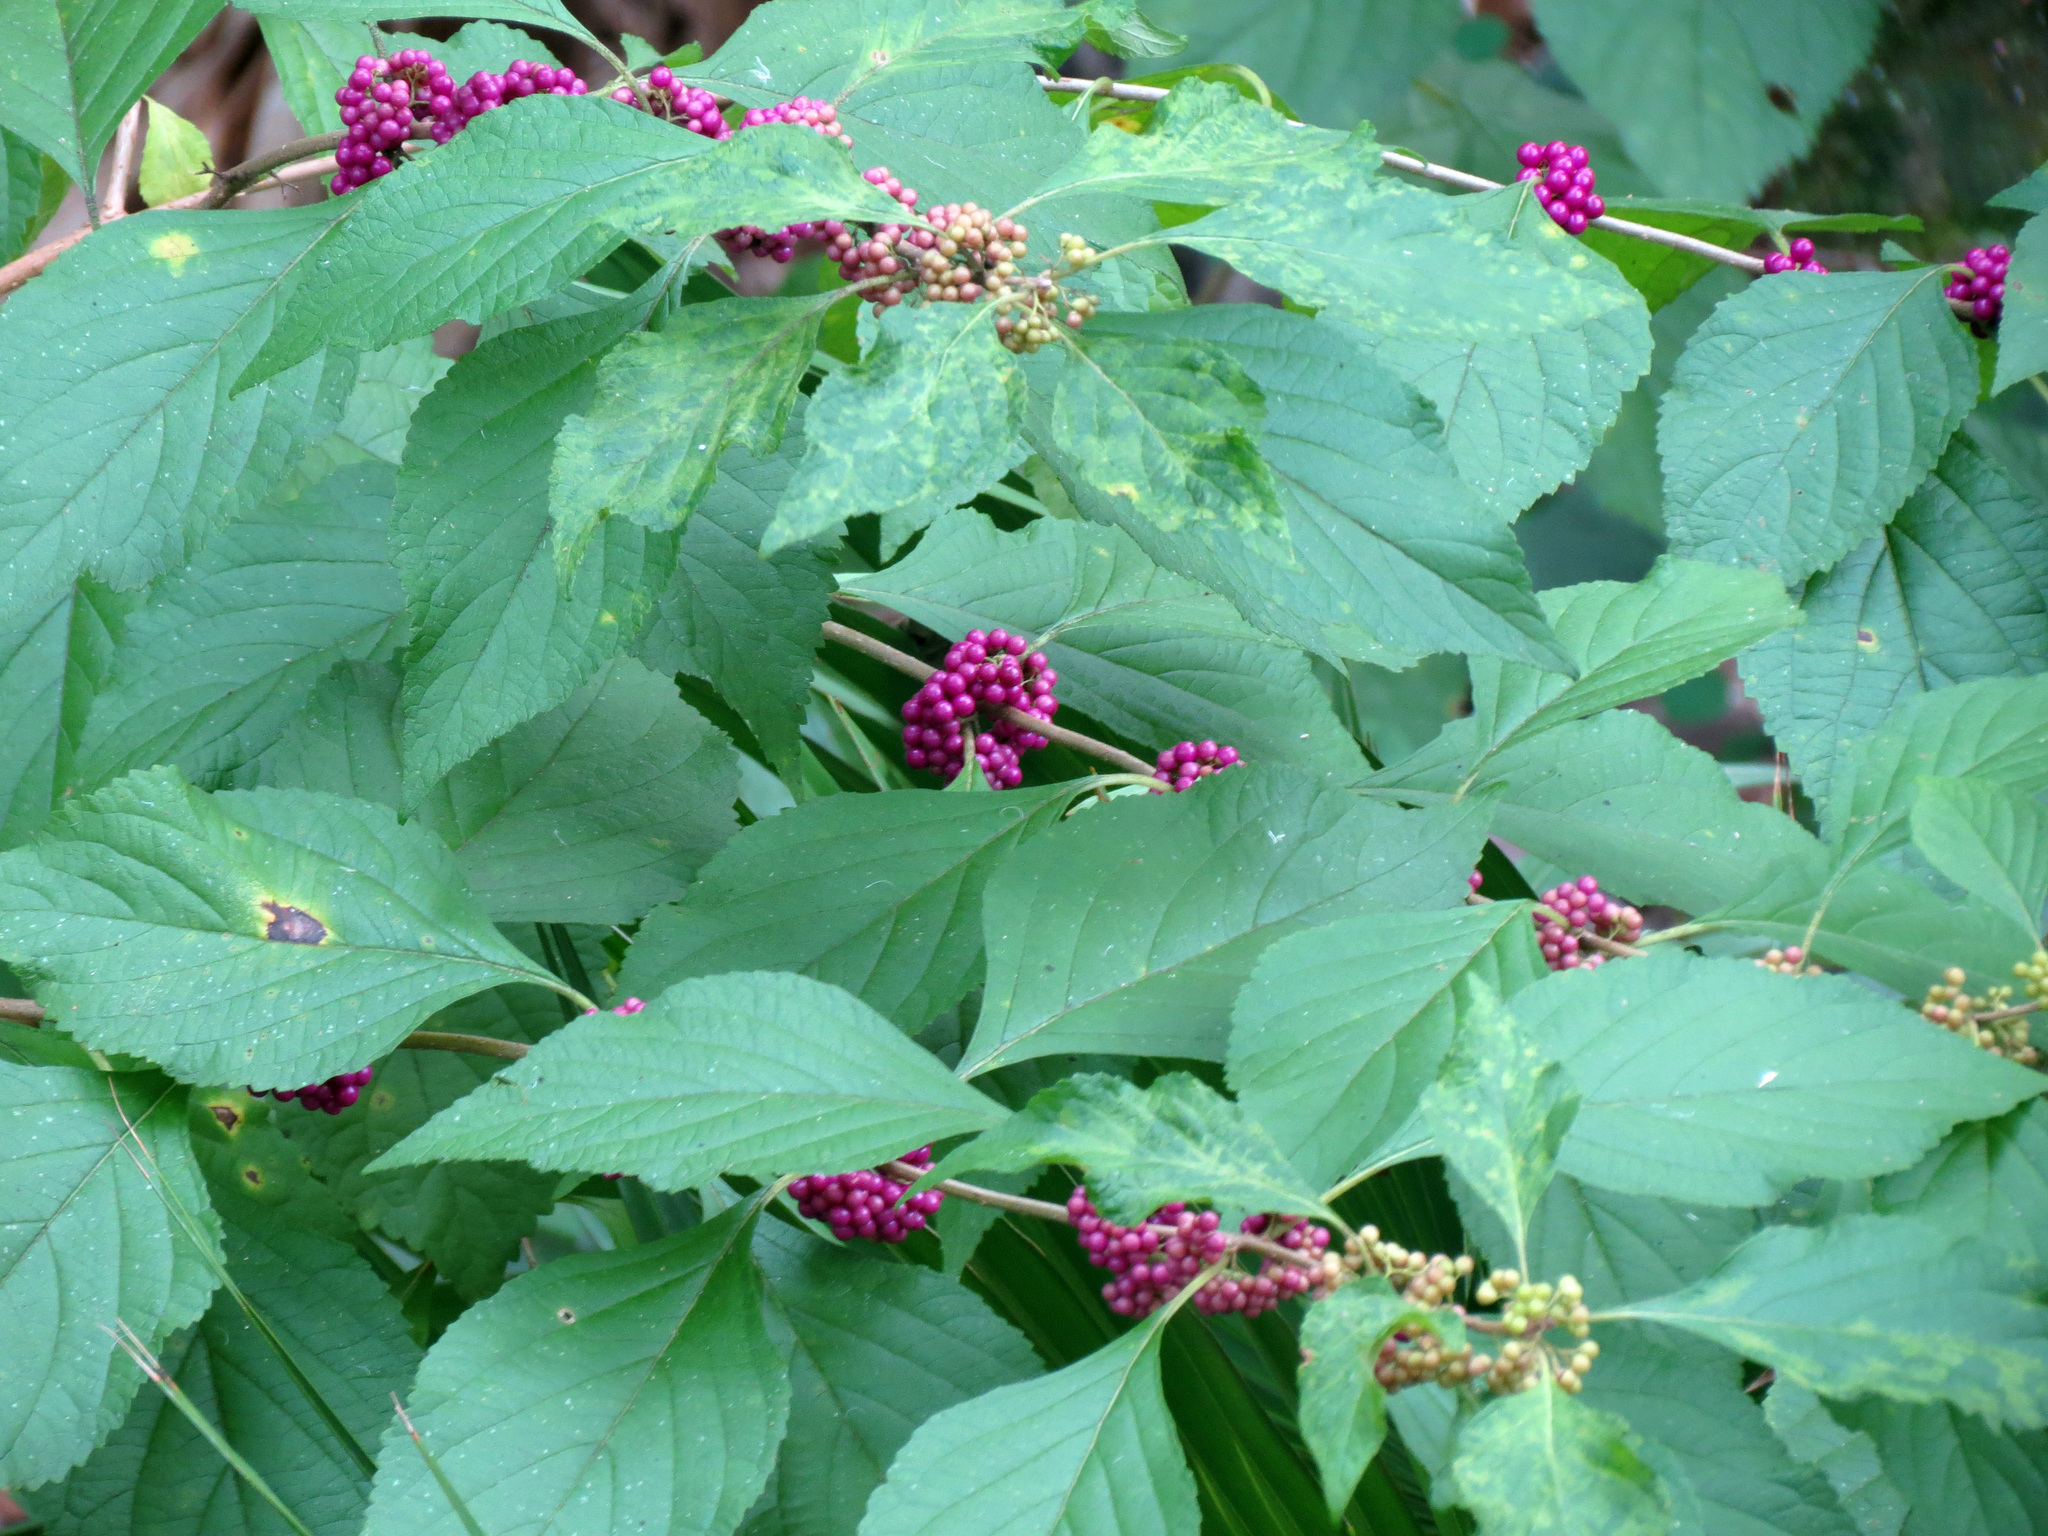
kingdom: Plantae
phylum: Tracheophyta
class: Magnoliopsida
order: Lamiales
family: Lamiaceae
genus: Callicarpa
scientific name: Callicarpa americana
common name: American beautyberry
